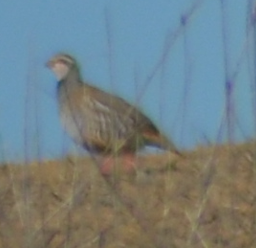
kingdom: Animalia
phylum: Chordata
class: Aves
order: Galliformes
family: Phasianidae
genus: Alectoris
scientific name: Alectoris rufa
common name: Red-legged partridge
